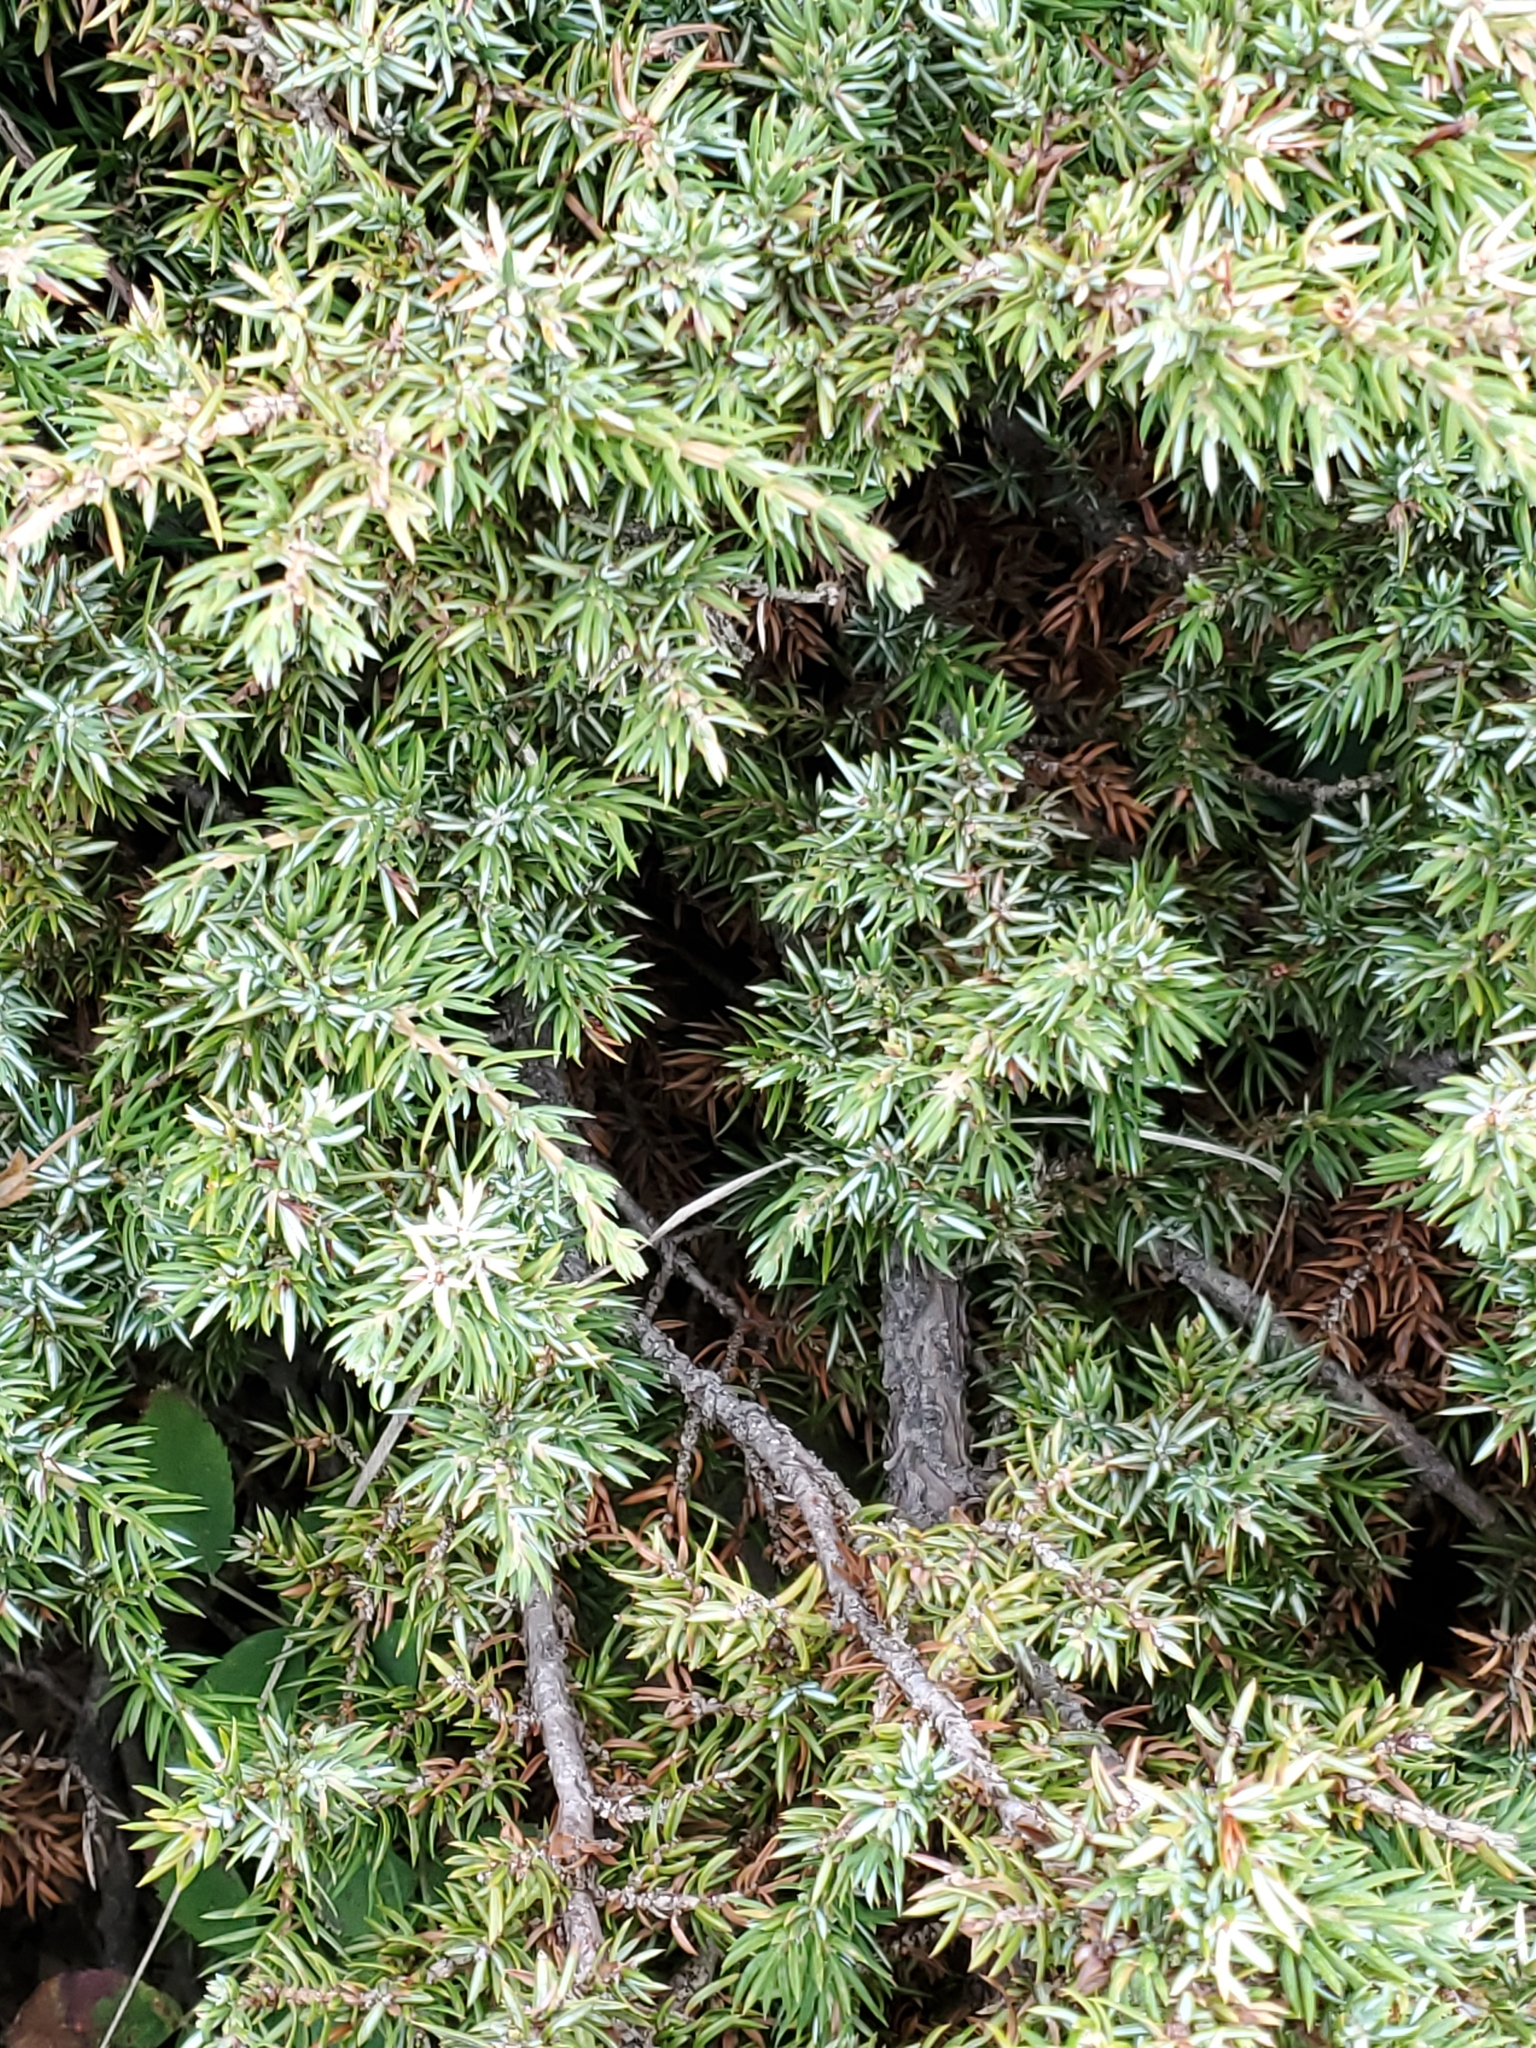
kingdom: Plantae
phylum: Tracheophyta
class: Pinopsida
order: Pinales
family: Cupressaceae
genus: Juniperus
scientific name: Juniperus communis
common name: Common juniper
